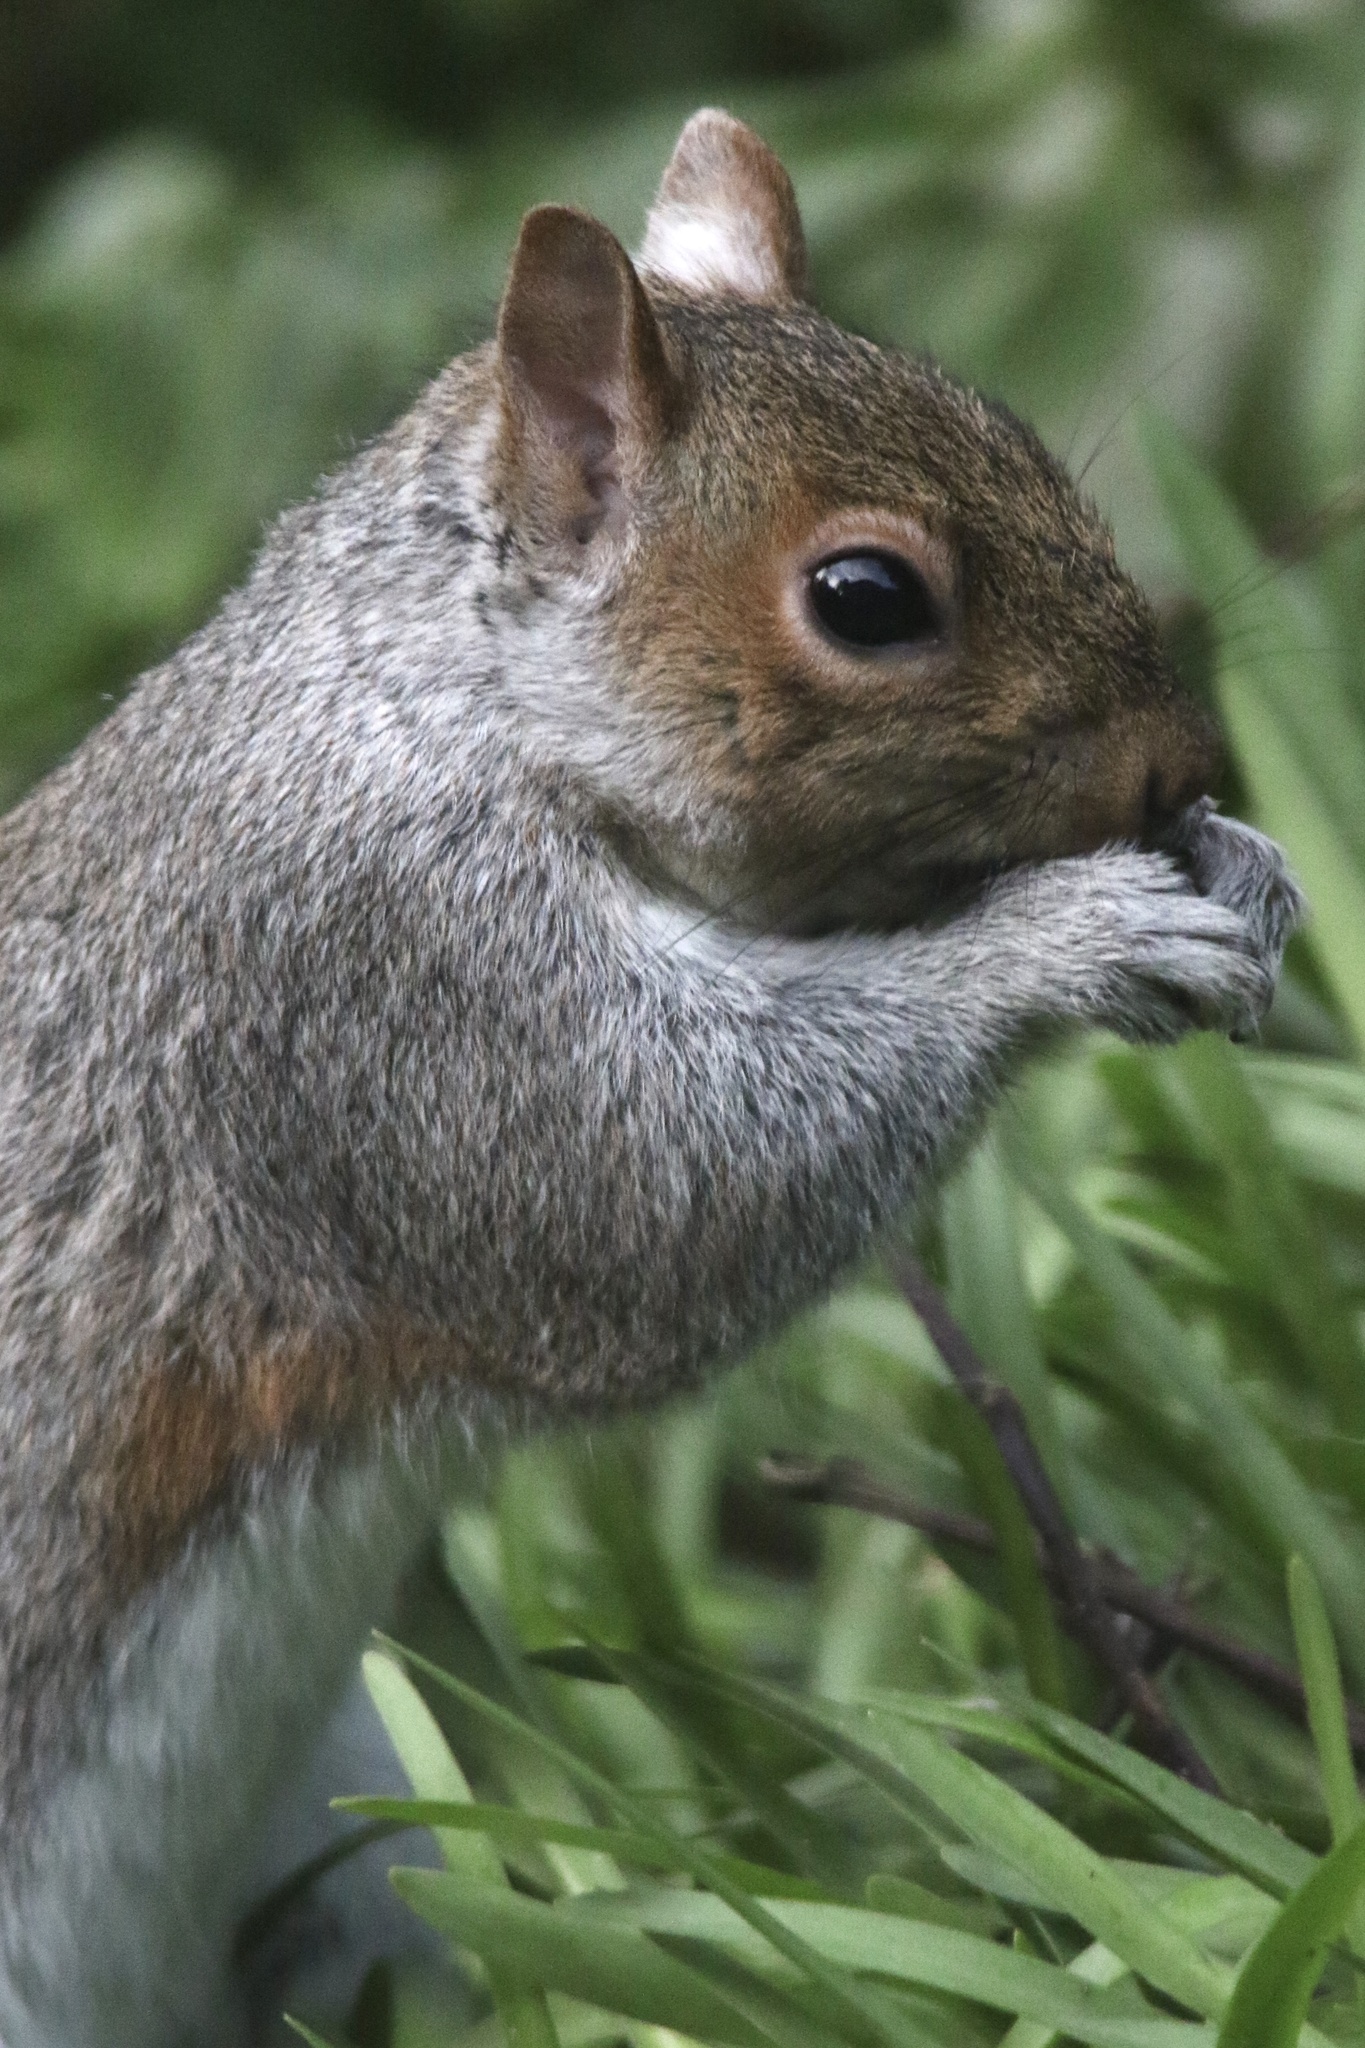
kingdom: Animalia
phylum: Chordata
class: Mammalia
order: Rodentia
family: Sciuridae
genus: Sciurus
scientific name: Sciurus carolinensis
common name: Eastern gray squirrel
